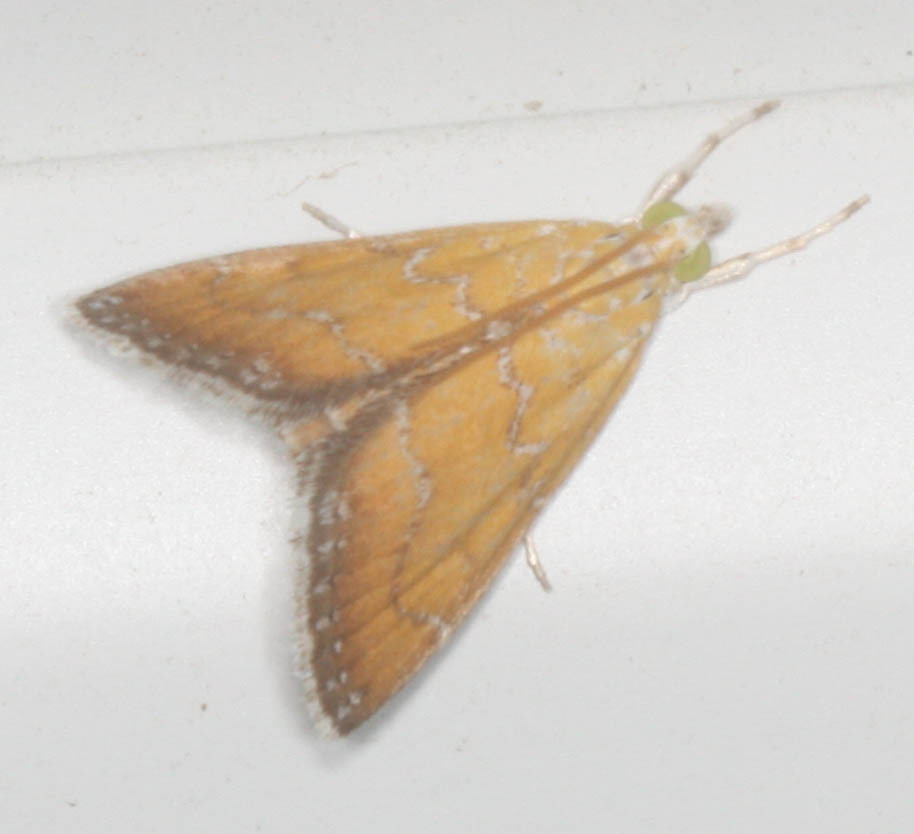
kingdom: Animalia
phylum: Arthropoda
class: Insecta
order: Lepidoptera
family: Crambidae
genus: Xanthophysa
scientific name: Xanthophysa psychicalis
